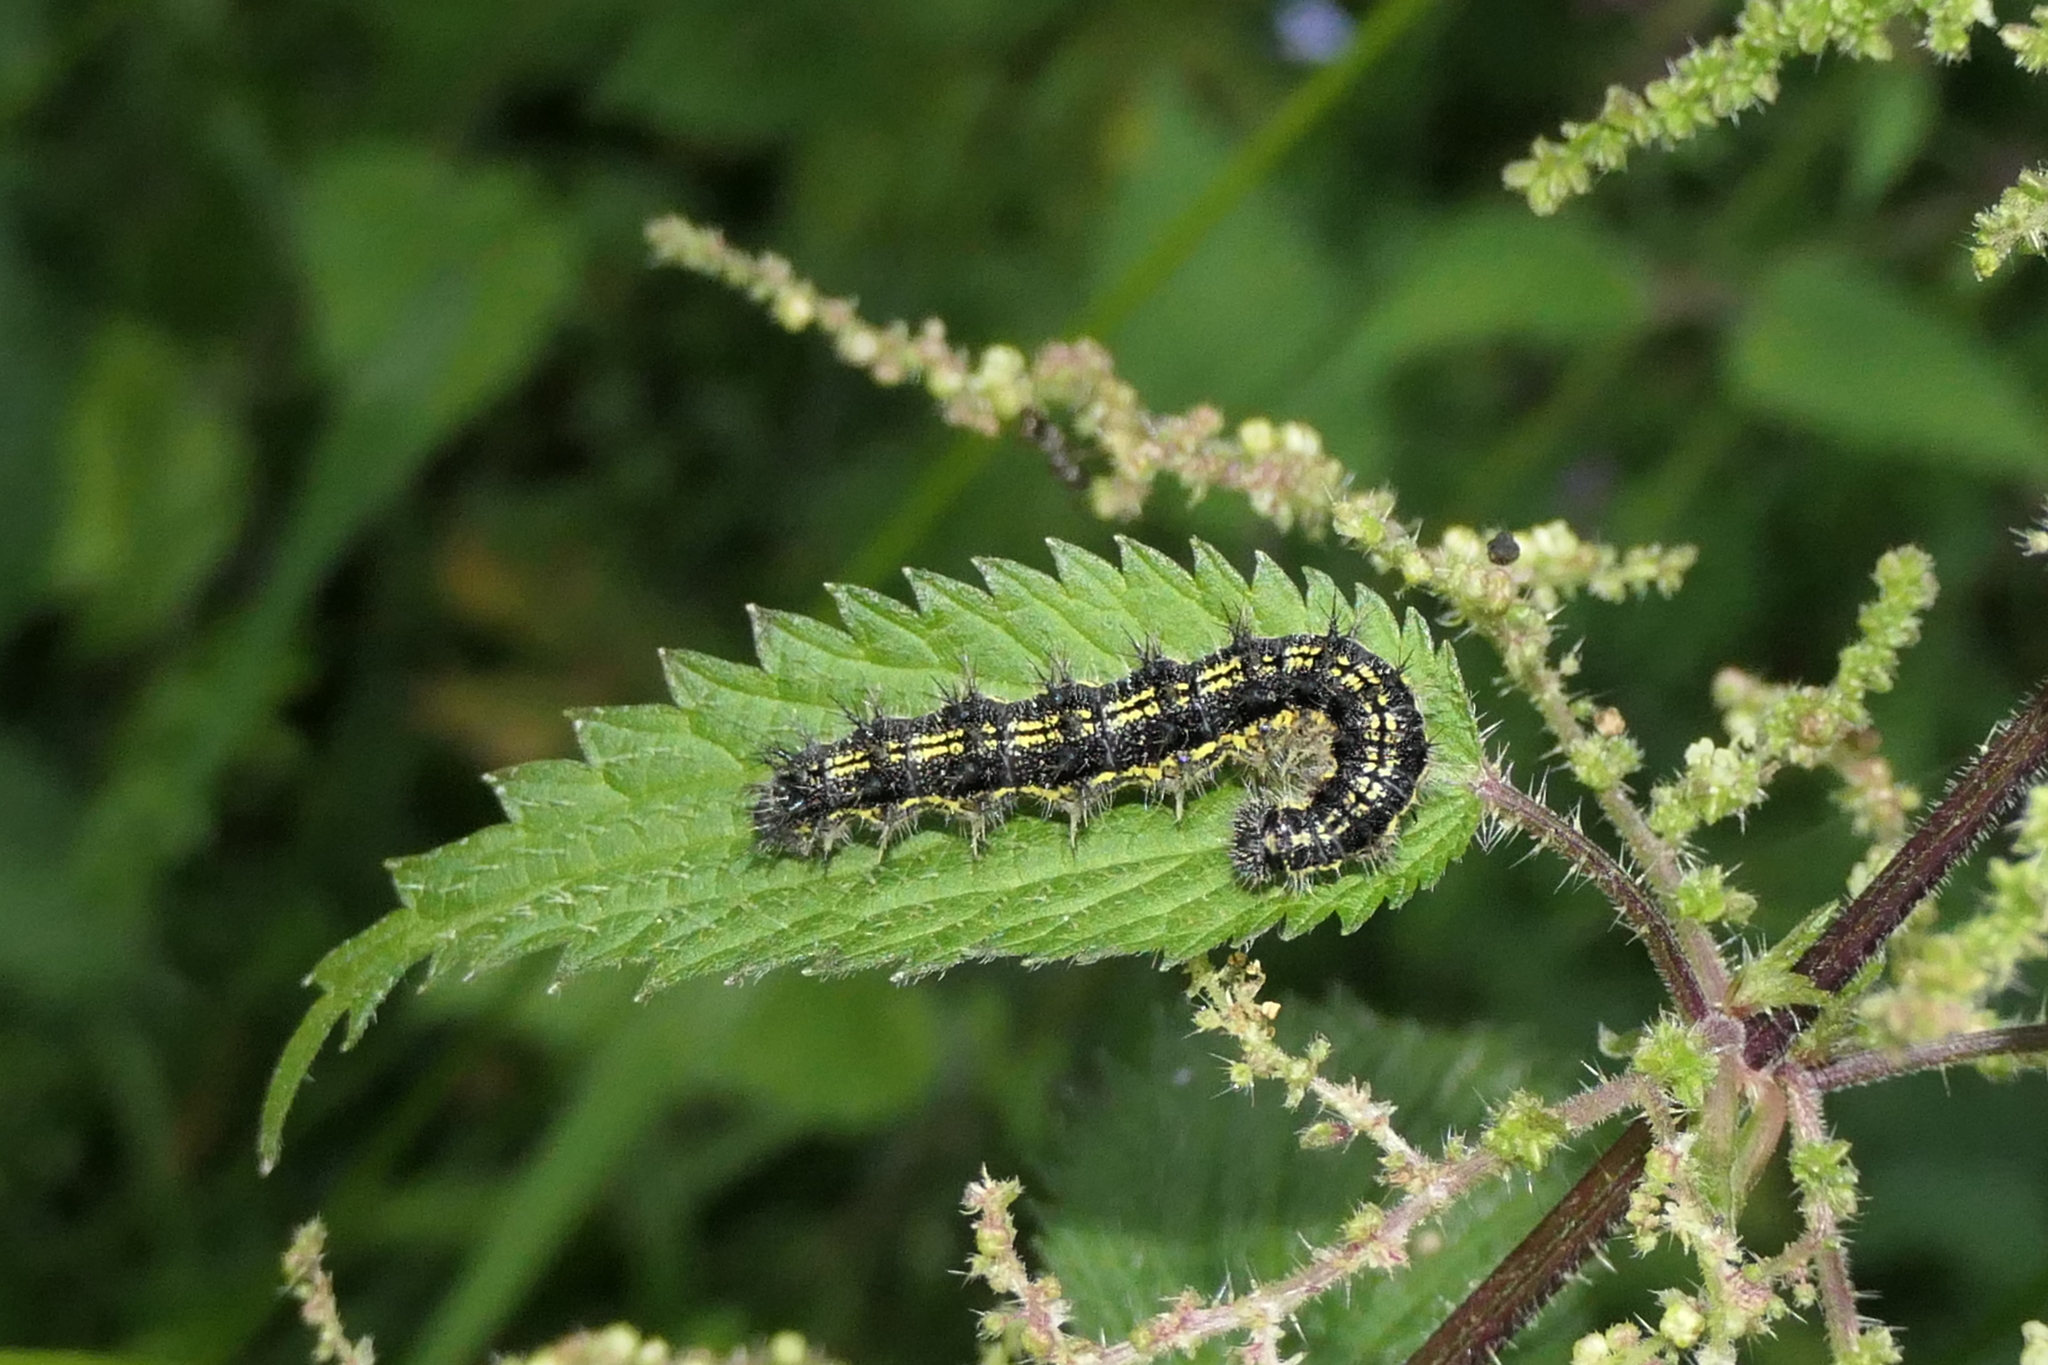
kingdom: Animalia
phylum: Arthropoda
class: Insecta
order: Lepidoptera
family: Nymphalidae
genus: Aglais
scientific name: Aglais urticae
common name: Small tortoiseshell
